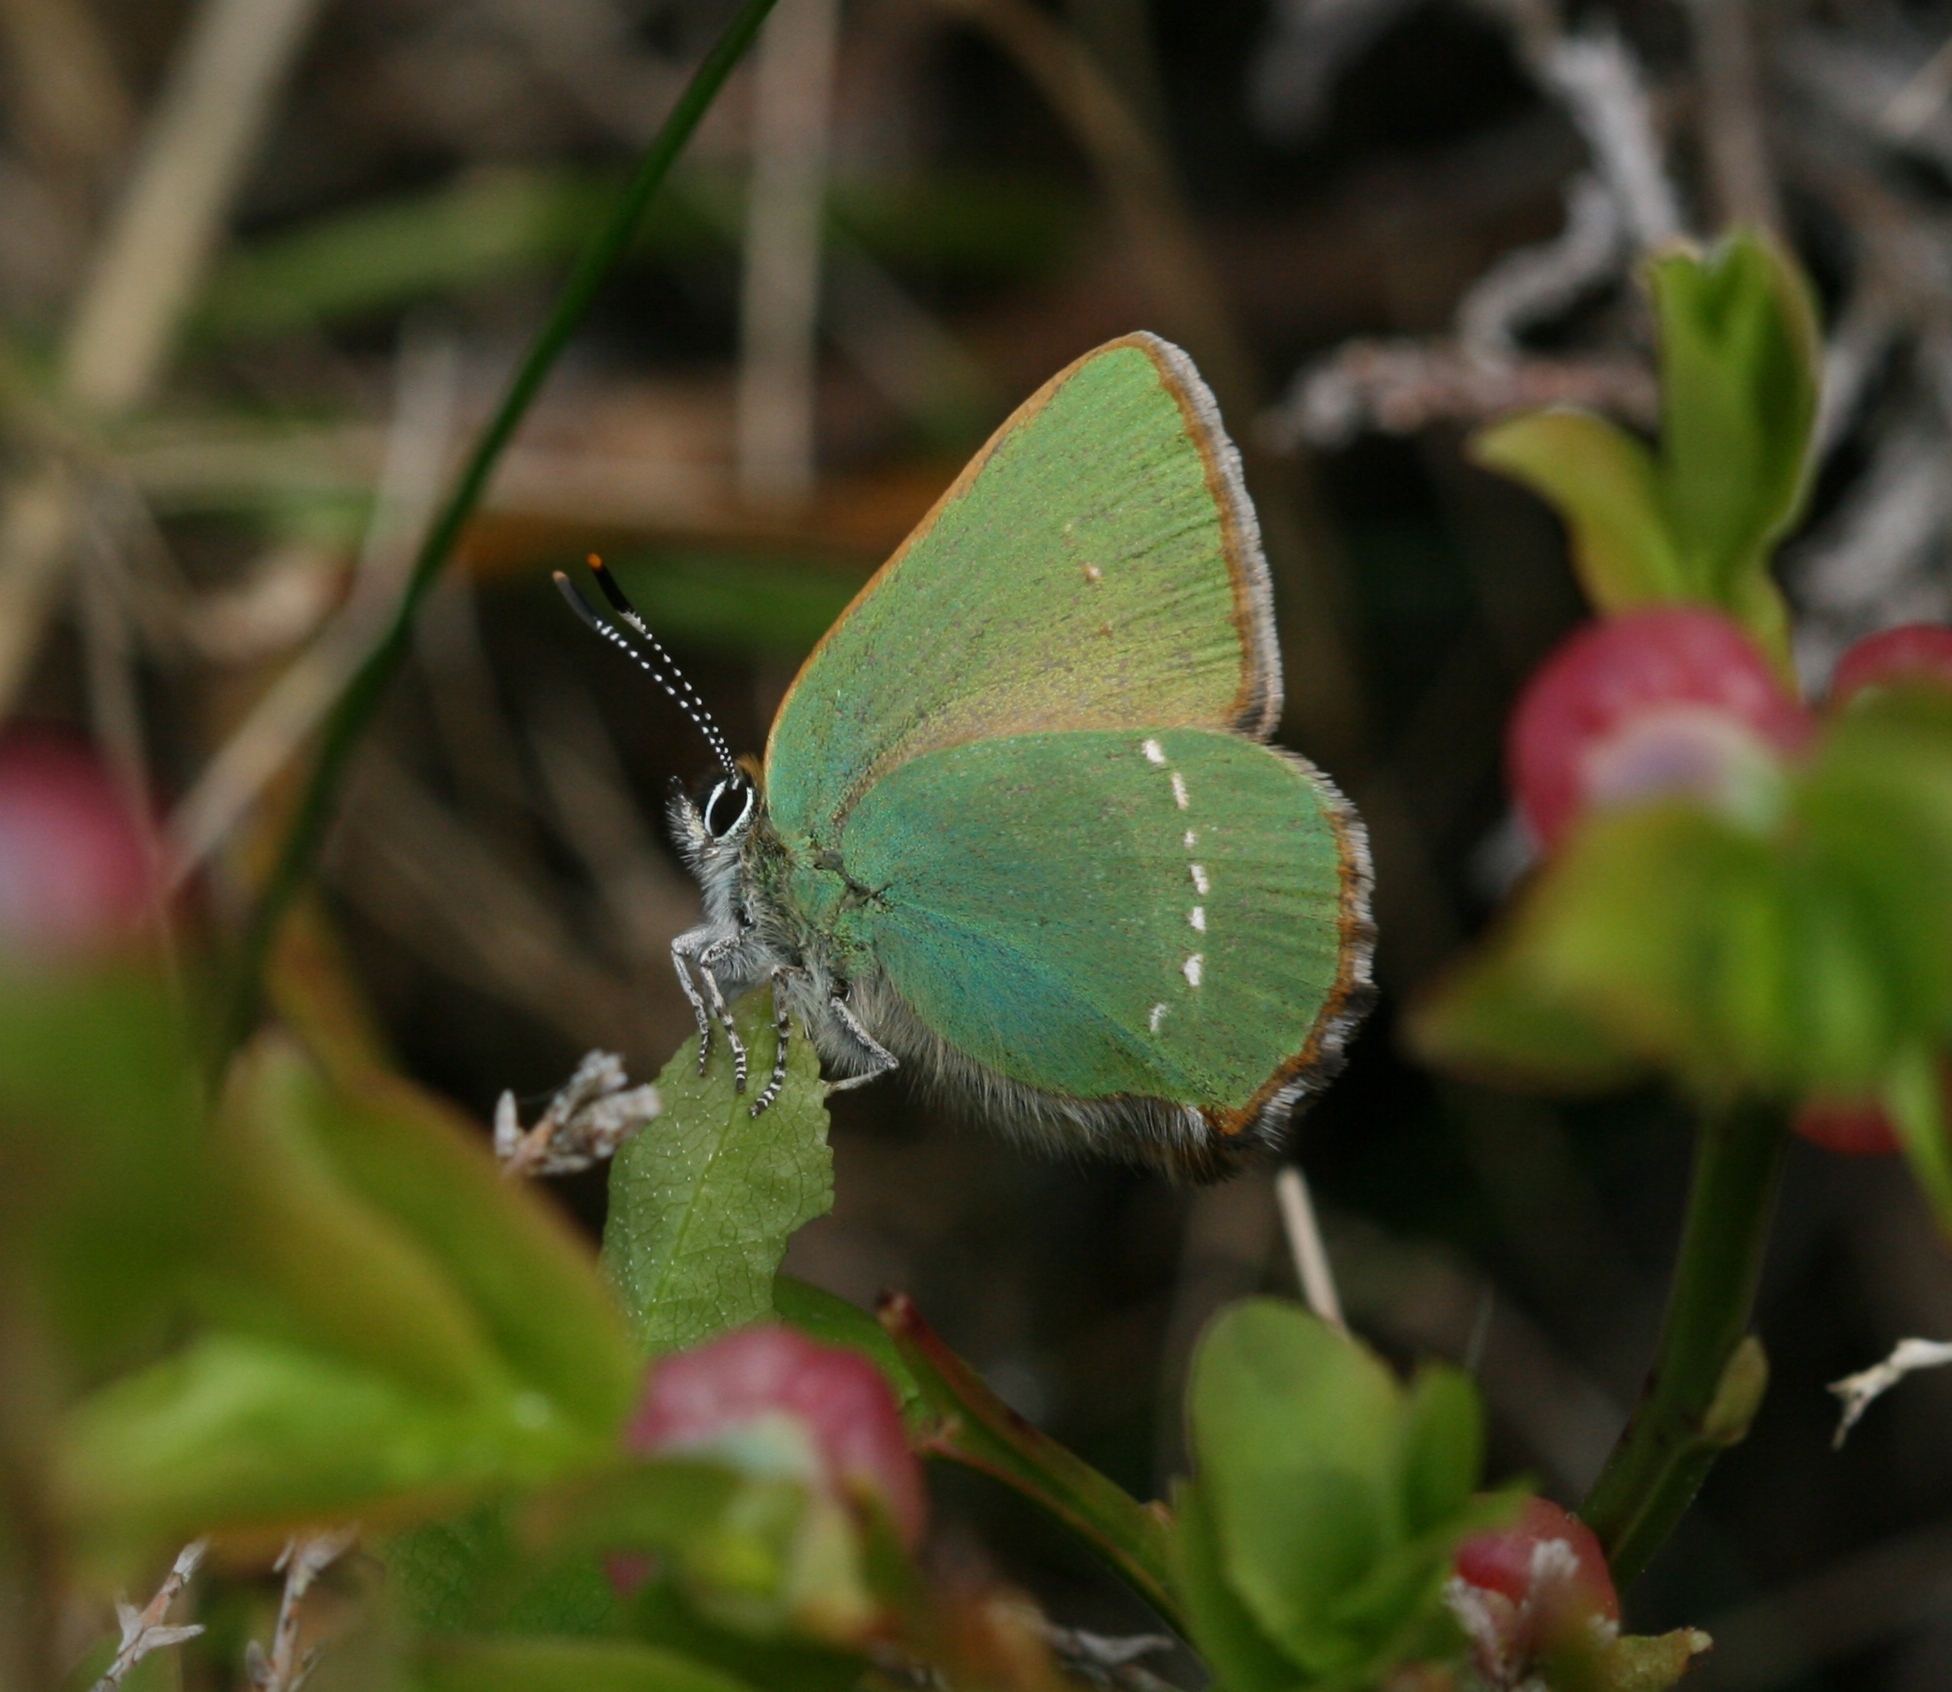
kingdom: Animalia
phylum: Arthropoda
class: Insecta
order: Lepidoptera
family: Lycaenidae
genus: Callophrys
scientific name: Callophrys rubi
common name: Green hairstreak
